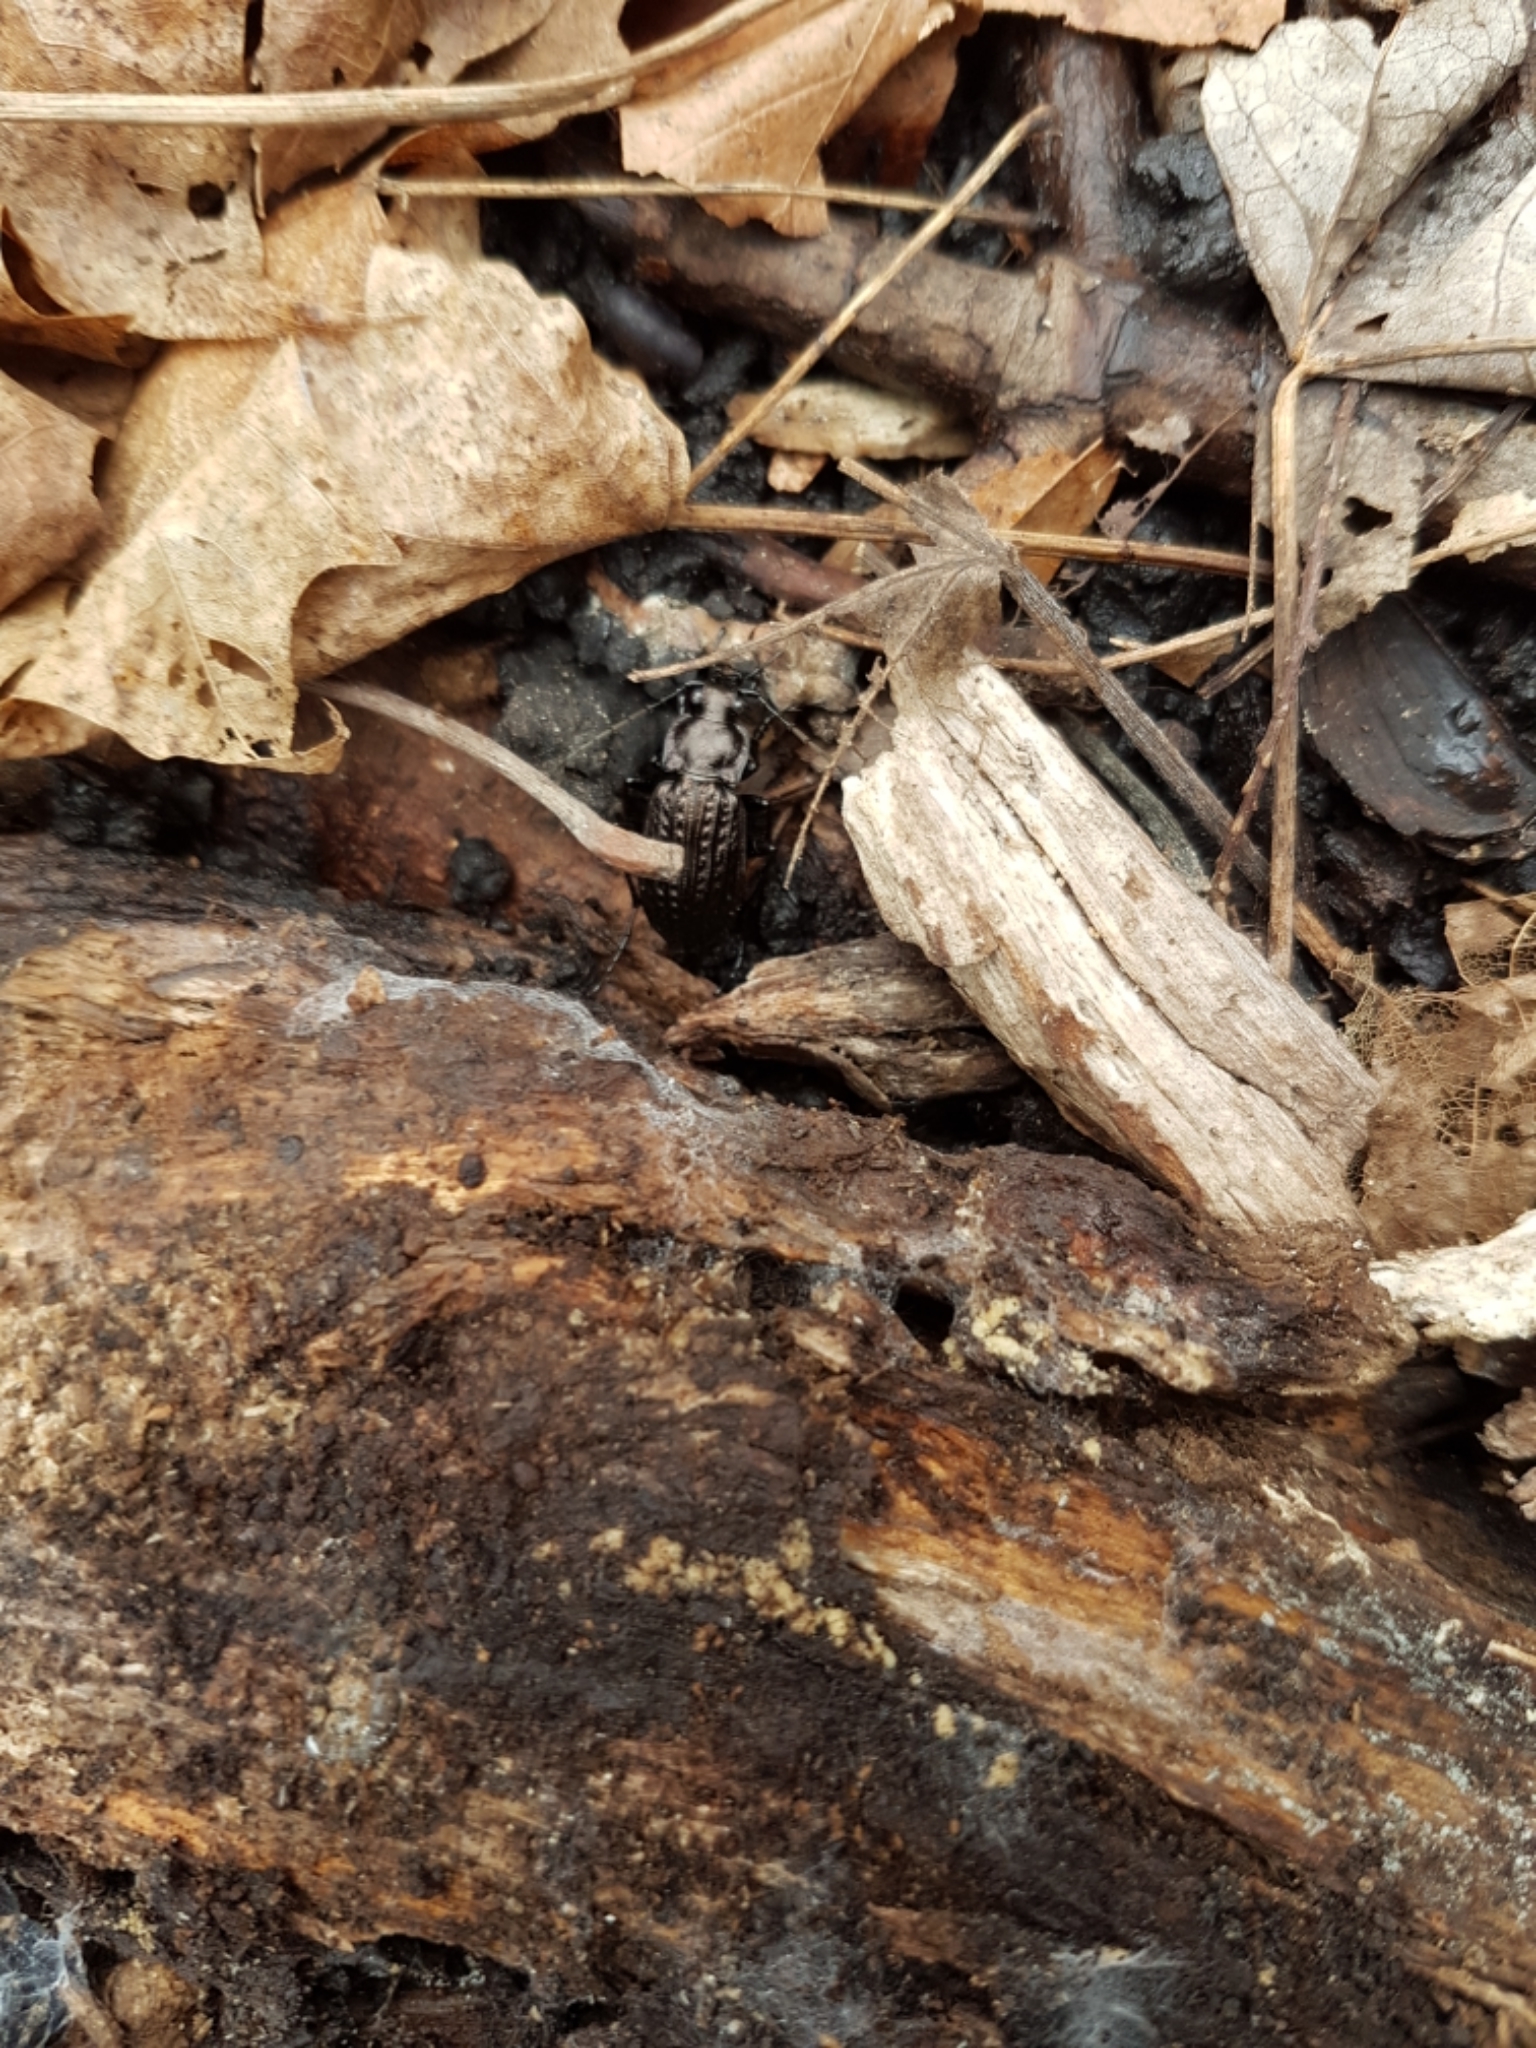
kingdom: Animalia
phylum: Arthropoda
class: Insecta
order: Coleoptera
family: Carabidae
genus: Carabus
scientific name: Carabus granulatus
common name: Granulate ground beetle
